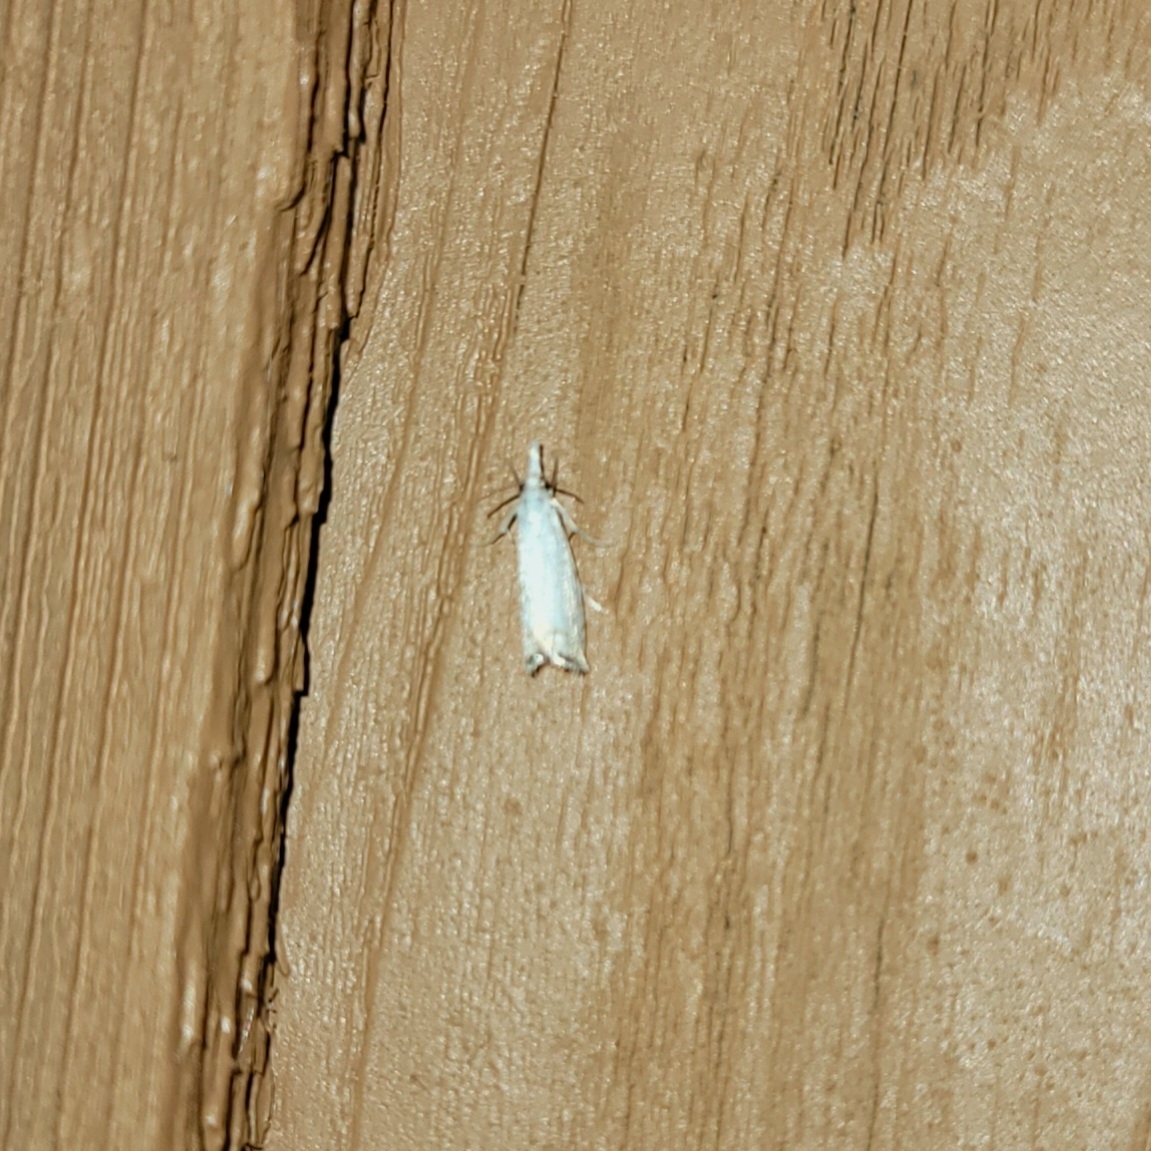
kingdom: Animalia
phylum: Arthropoda
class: Insecta
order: Lepidoptera
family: Crambidae
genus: Crambus
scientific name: Crambus albellus
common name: Small white grass-veneer
